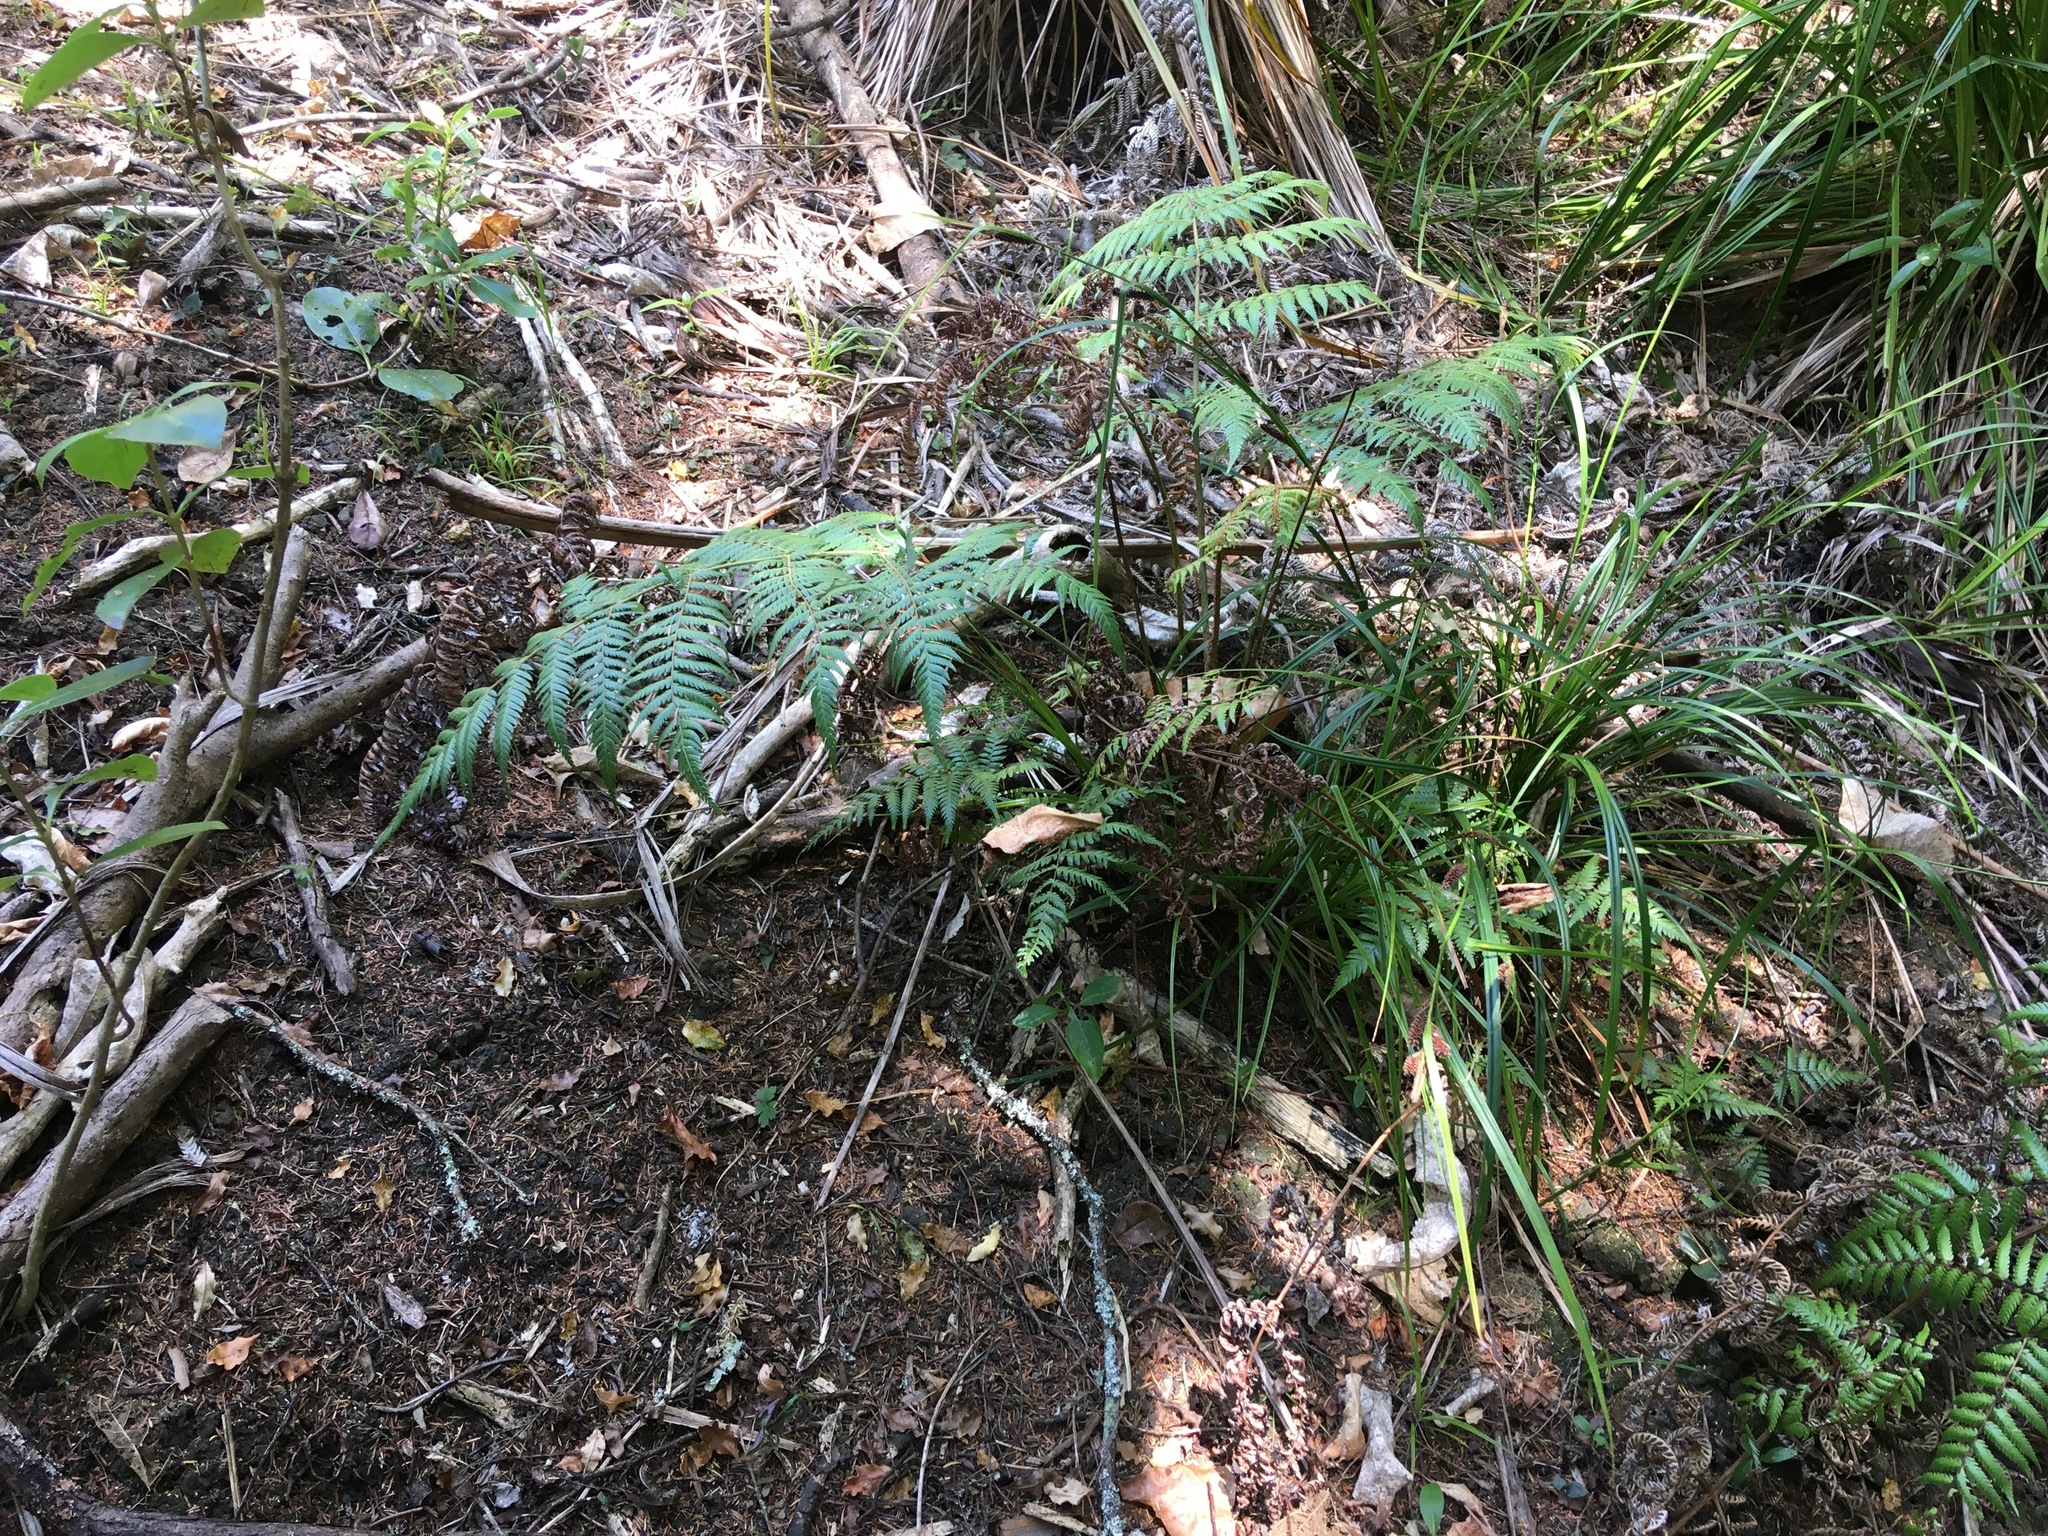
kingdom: Plantae
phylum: Tracheophyta
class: Polypodiopsida
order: Cyatheales
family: Cyatheaceae
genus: Alsophila
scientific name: Alsophila dealbata
